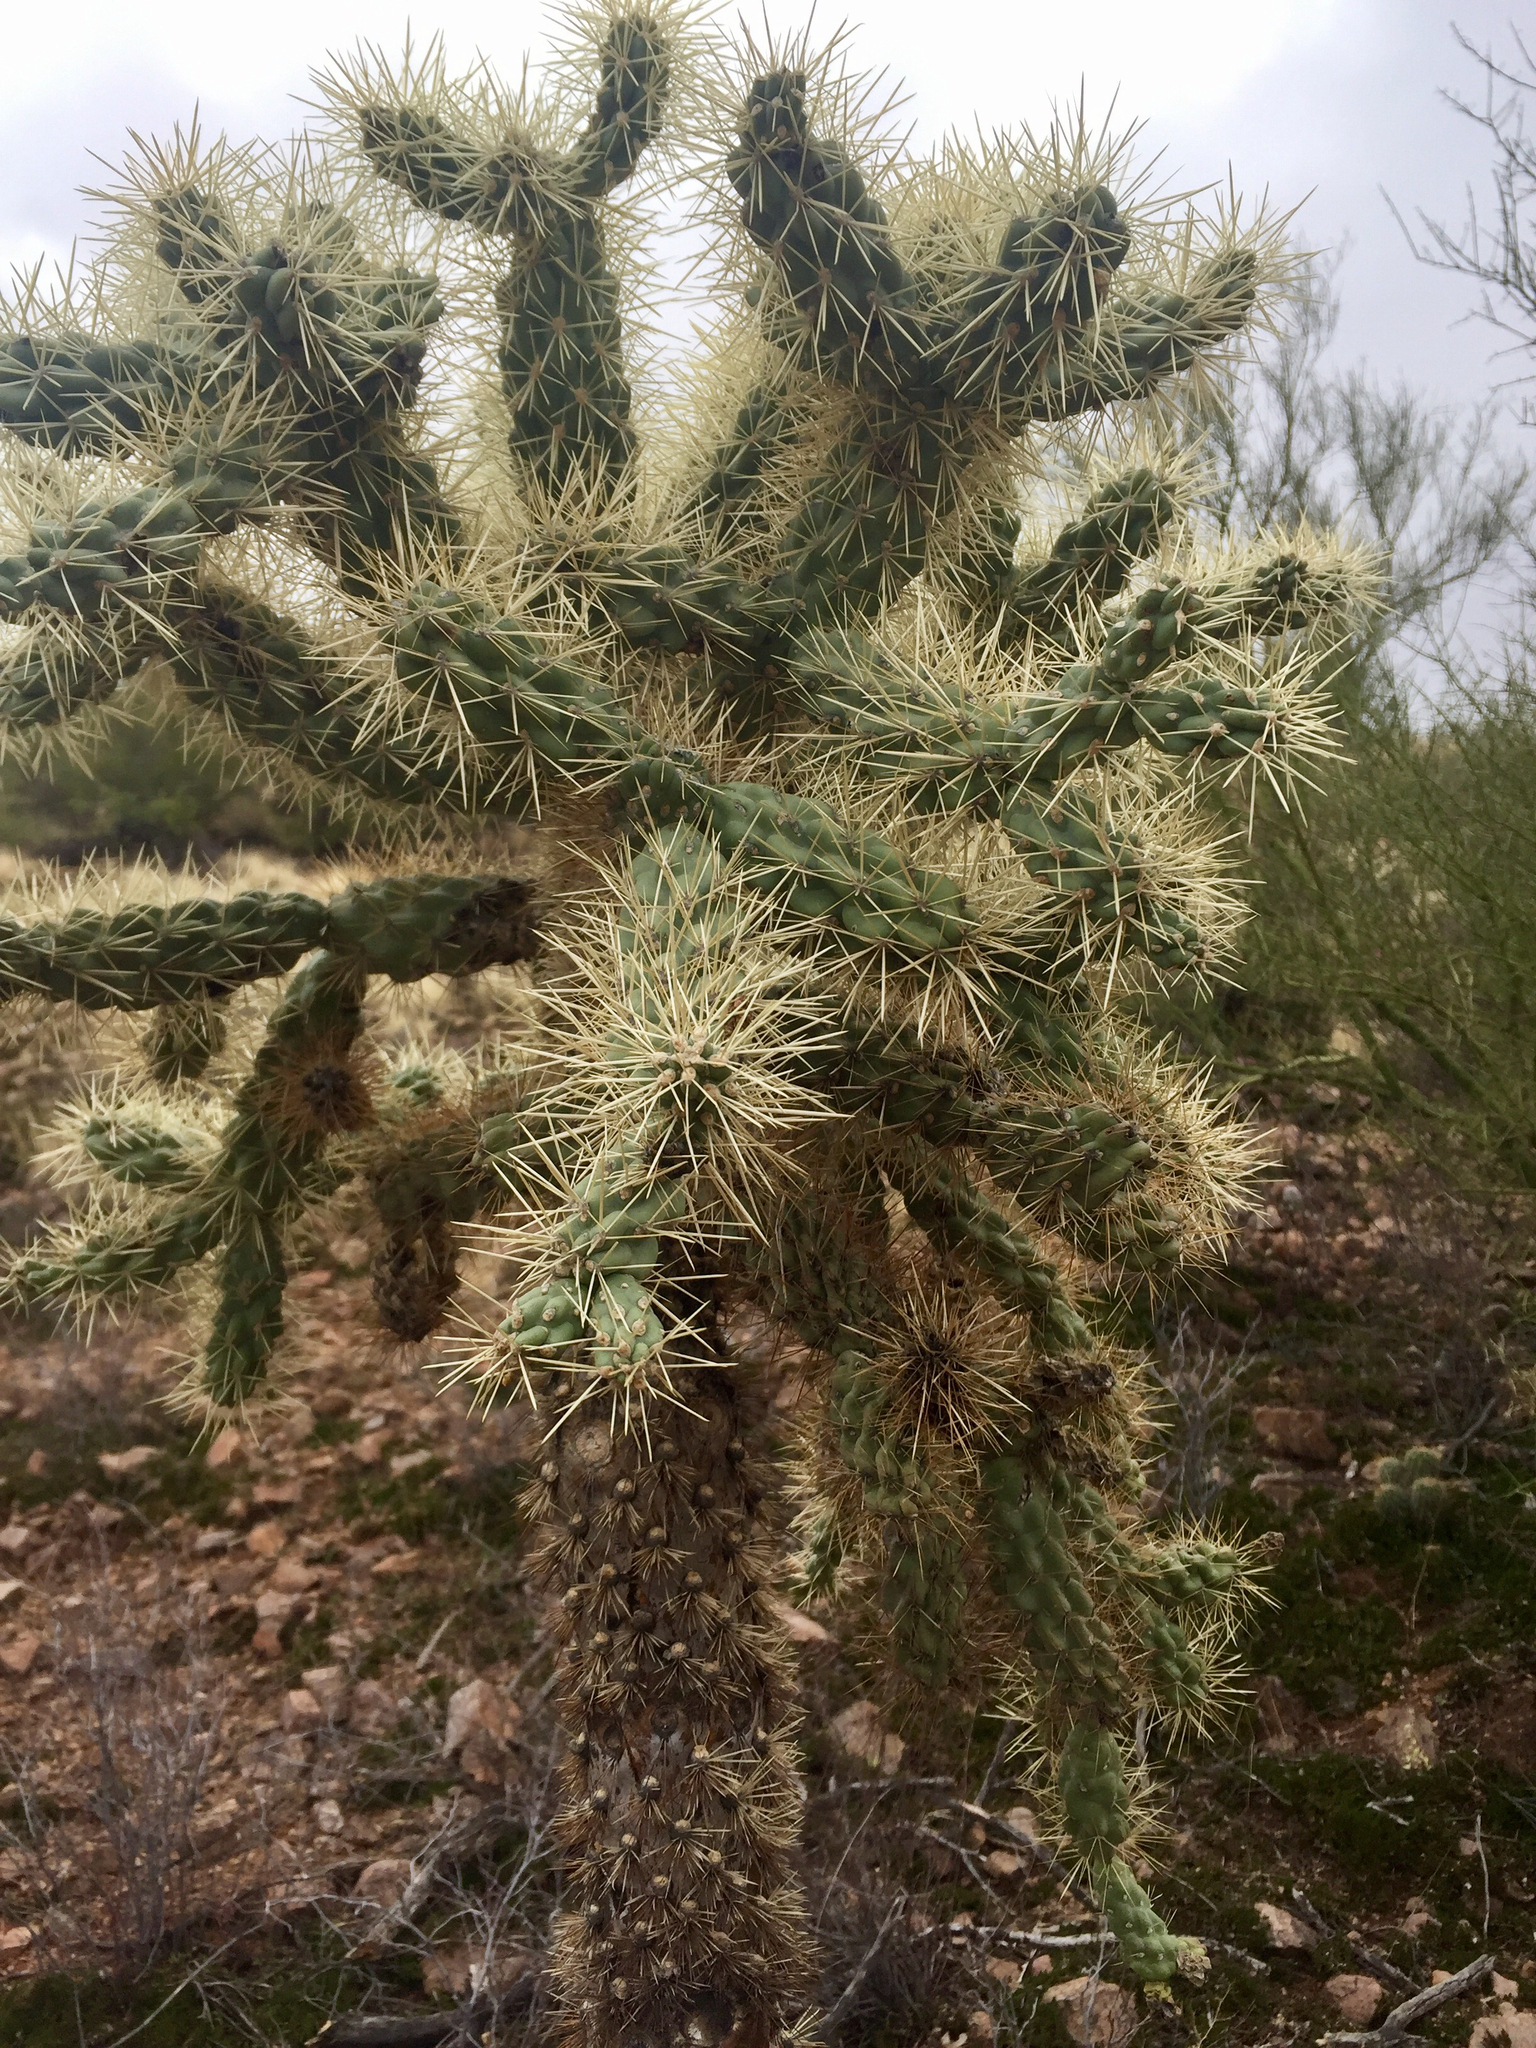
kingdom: Plantae
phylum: Tracheophyta
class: Magnoliopsida
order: Caryophyllales
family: Cactaceae
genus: Cylindropuntia
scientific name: Cylindropuntia fulgida
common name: Jumping cholla
